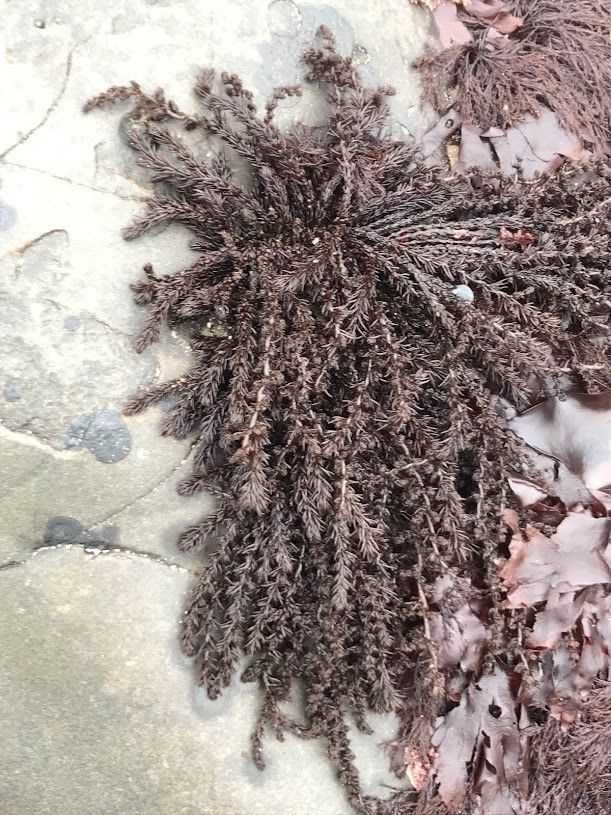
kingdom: Plantae
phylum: Rhodophyta
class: Florideophyceae
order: Ceramiales
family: Rhodomelaceae
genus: Neorhodomela
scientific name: Neorhodomela larix
